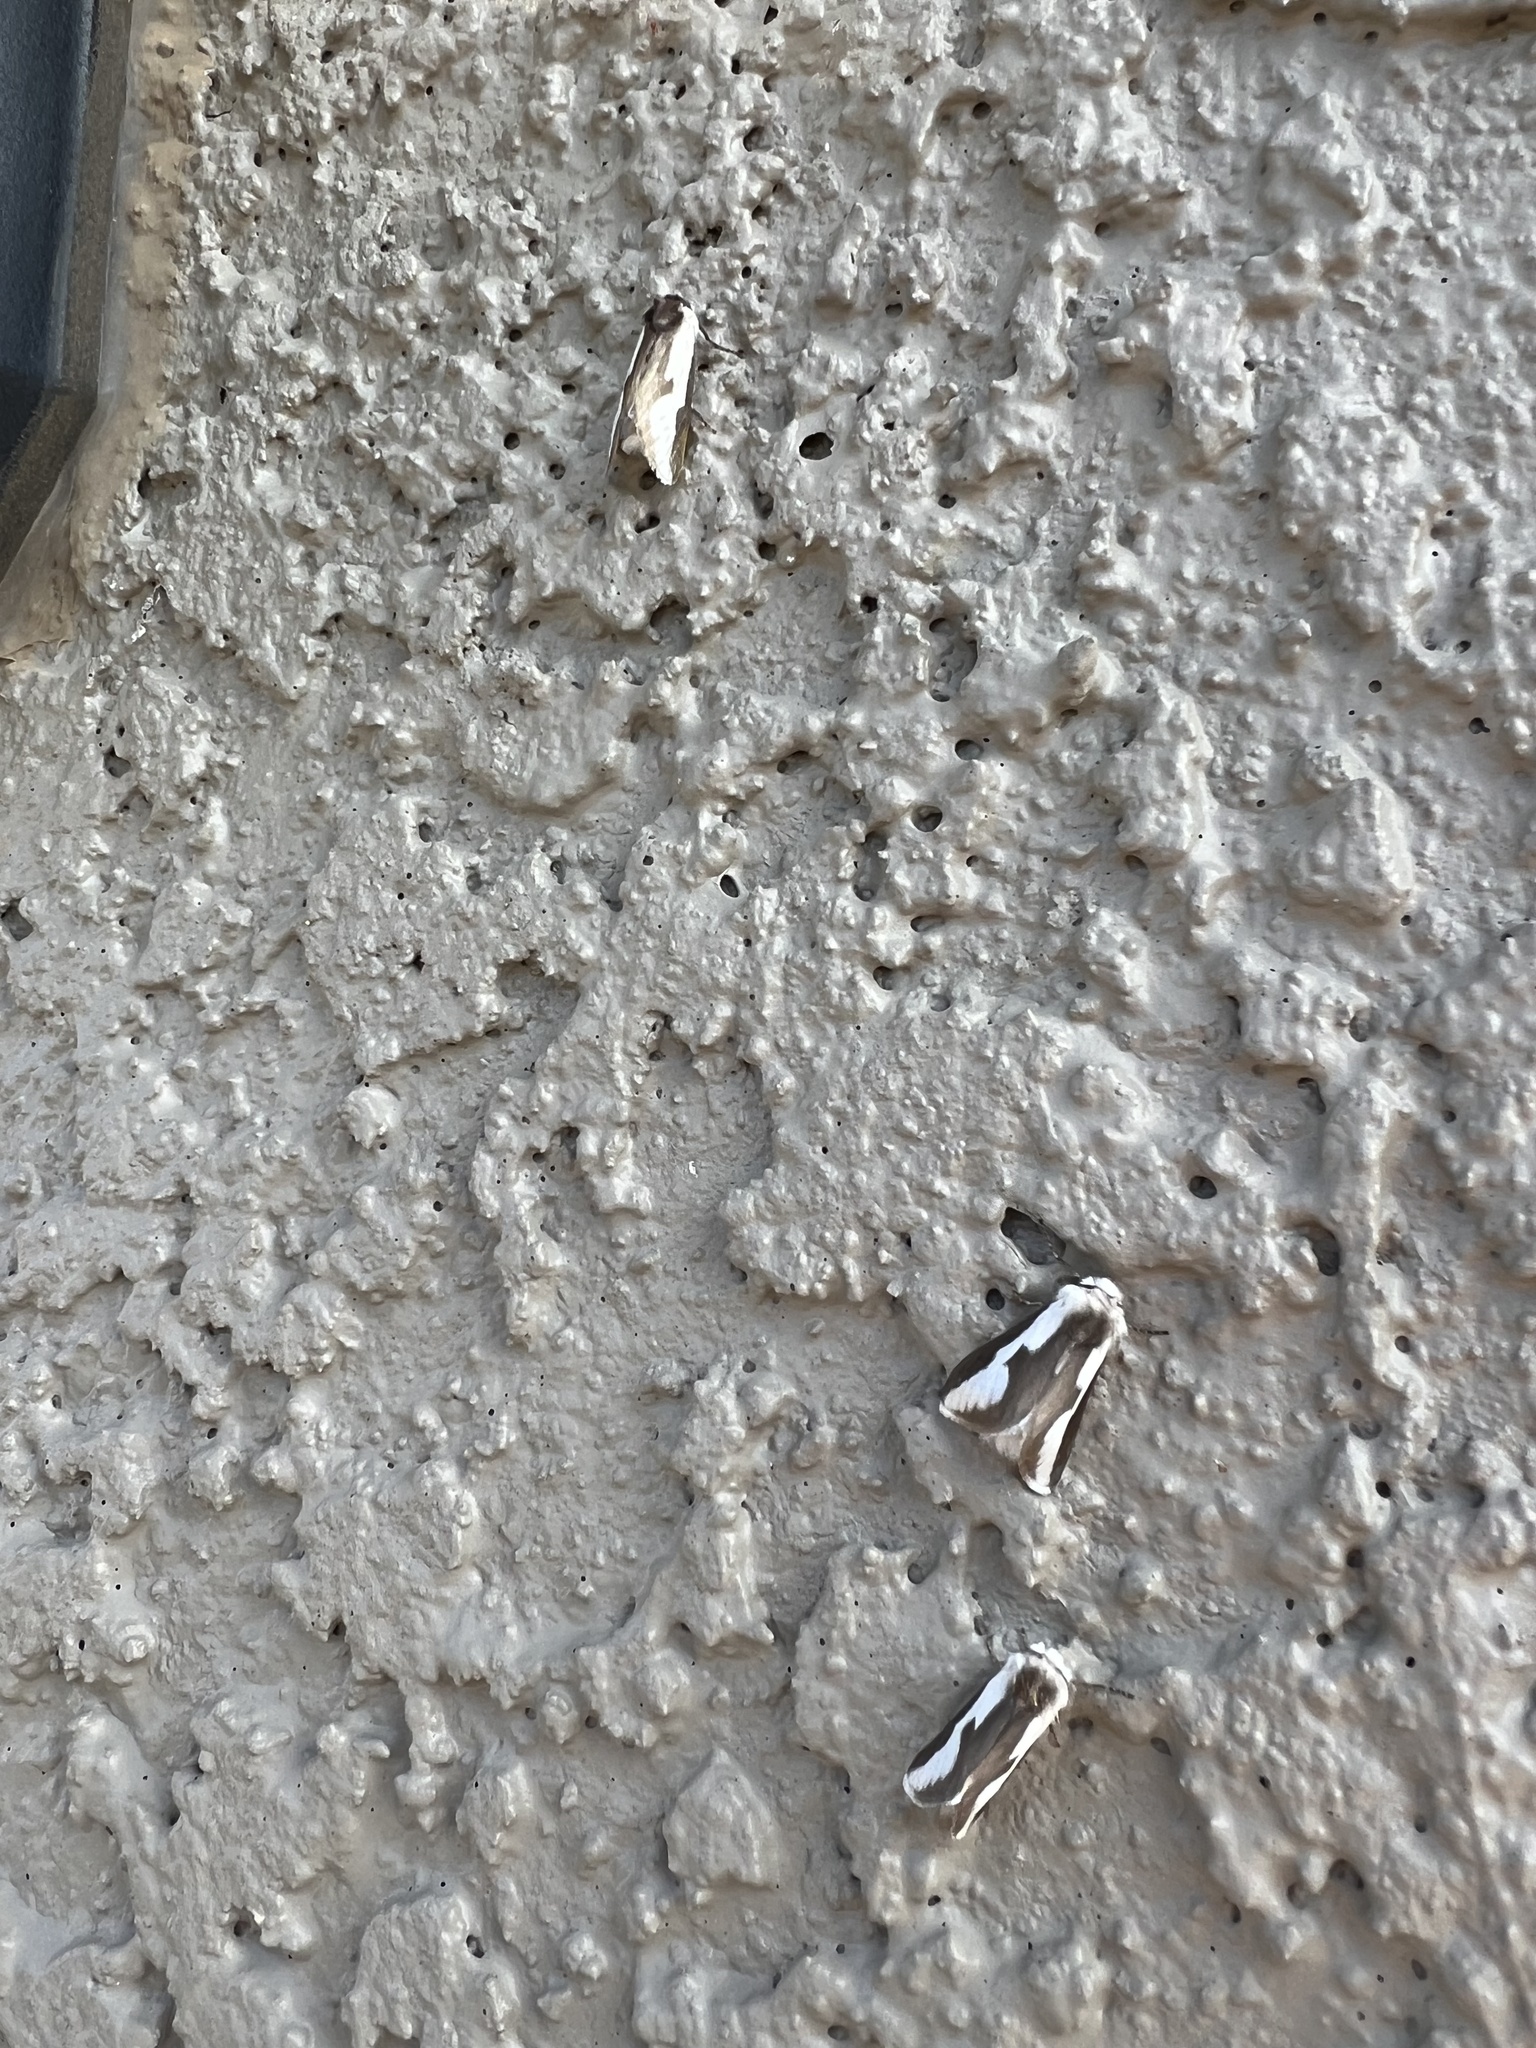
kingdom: Animalia
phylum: Arthropoda
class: Insecta
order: Lepidoptera
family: Megalopygidae
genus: Norape
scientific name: Norape tener
